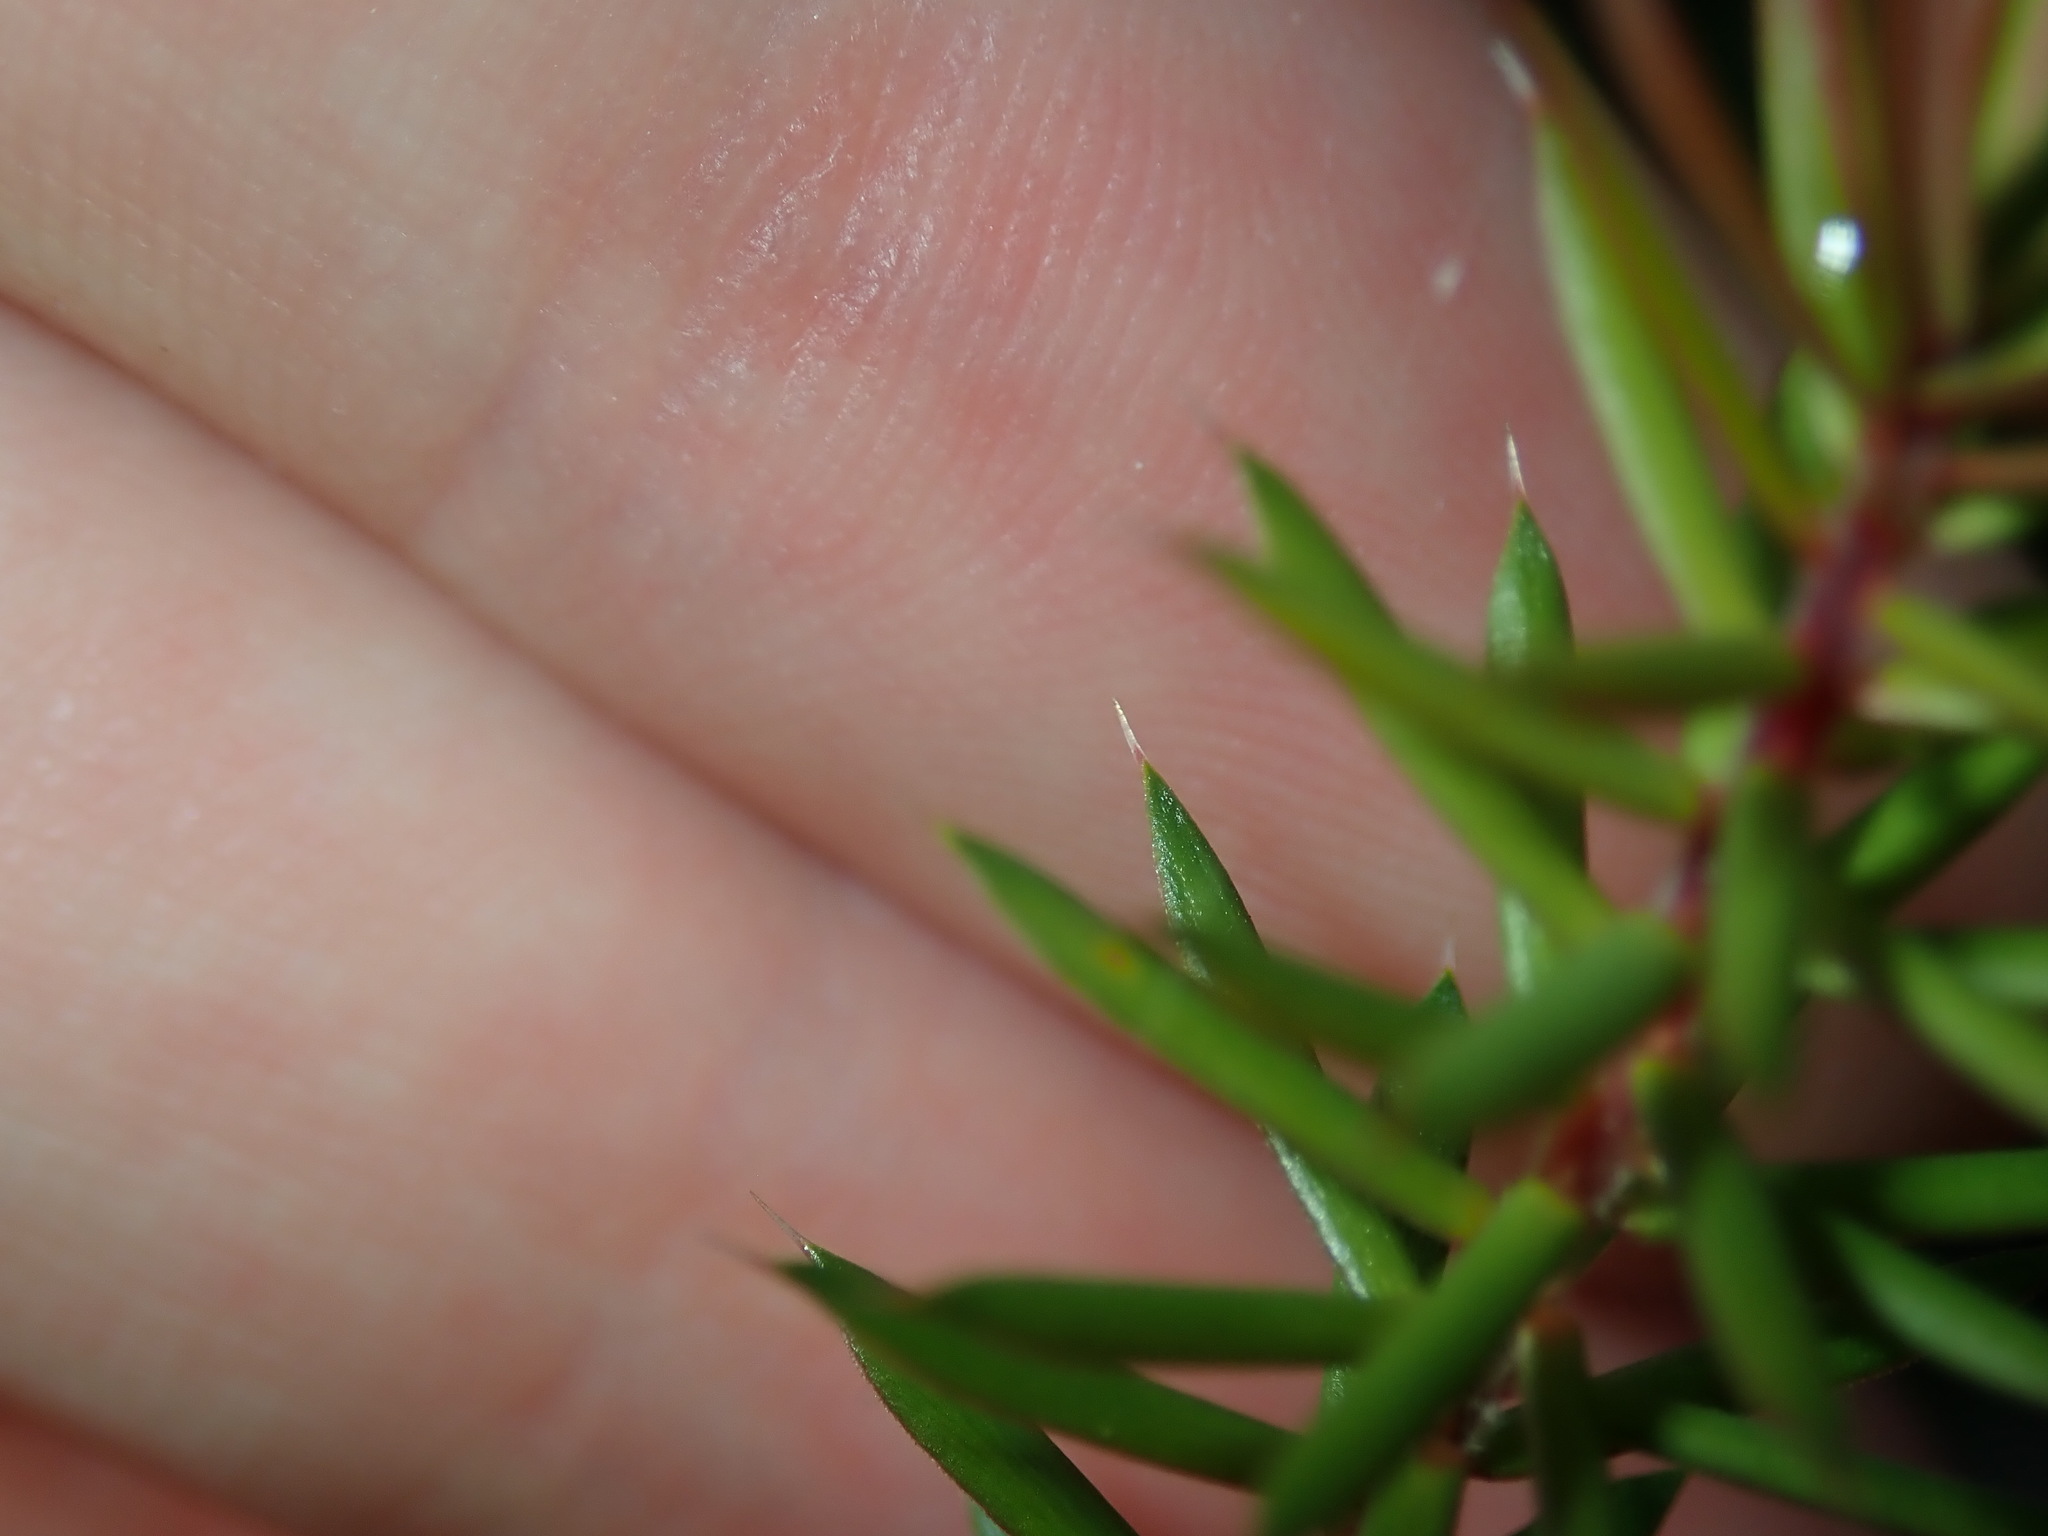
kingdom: Plantae
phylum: Tracheophyta
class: Magnoliopsida
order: Ericales
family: Ericaceae
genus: Styphelia
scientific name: Styphelia sieberi
